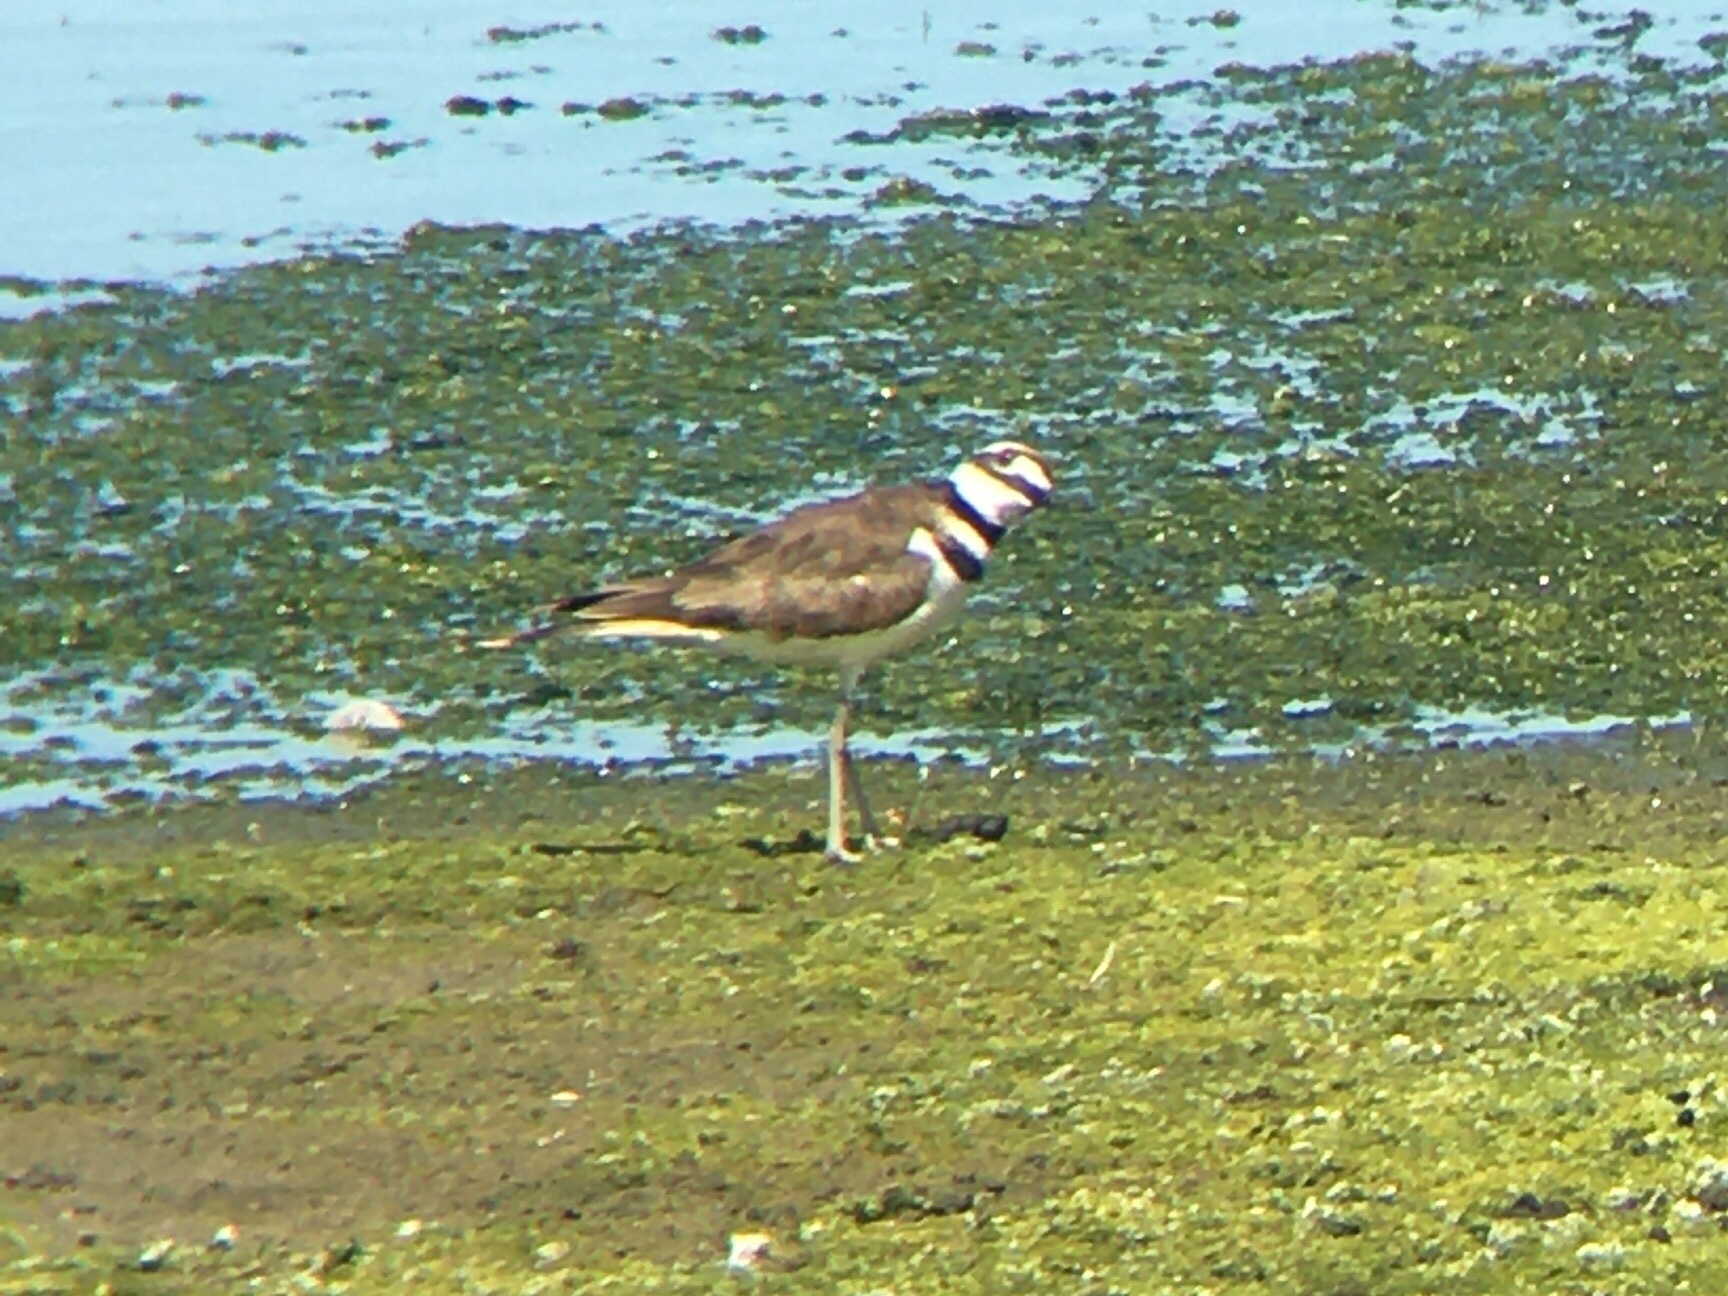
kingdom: Animalia
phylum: Chordata
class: Aves
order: Charadriiformes
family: Charadriidae
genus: Charadrius
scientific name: Charadrius vociferus
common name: Killdeer
